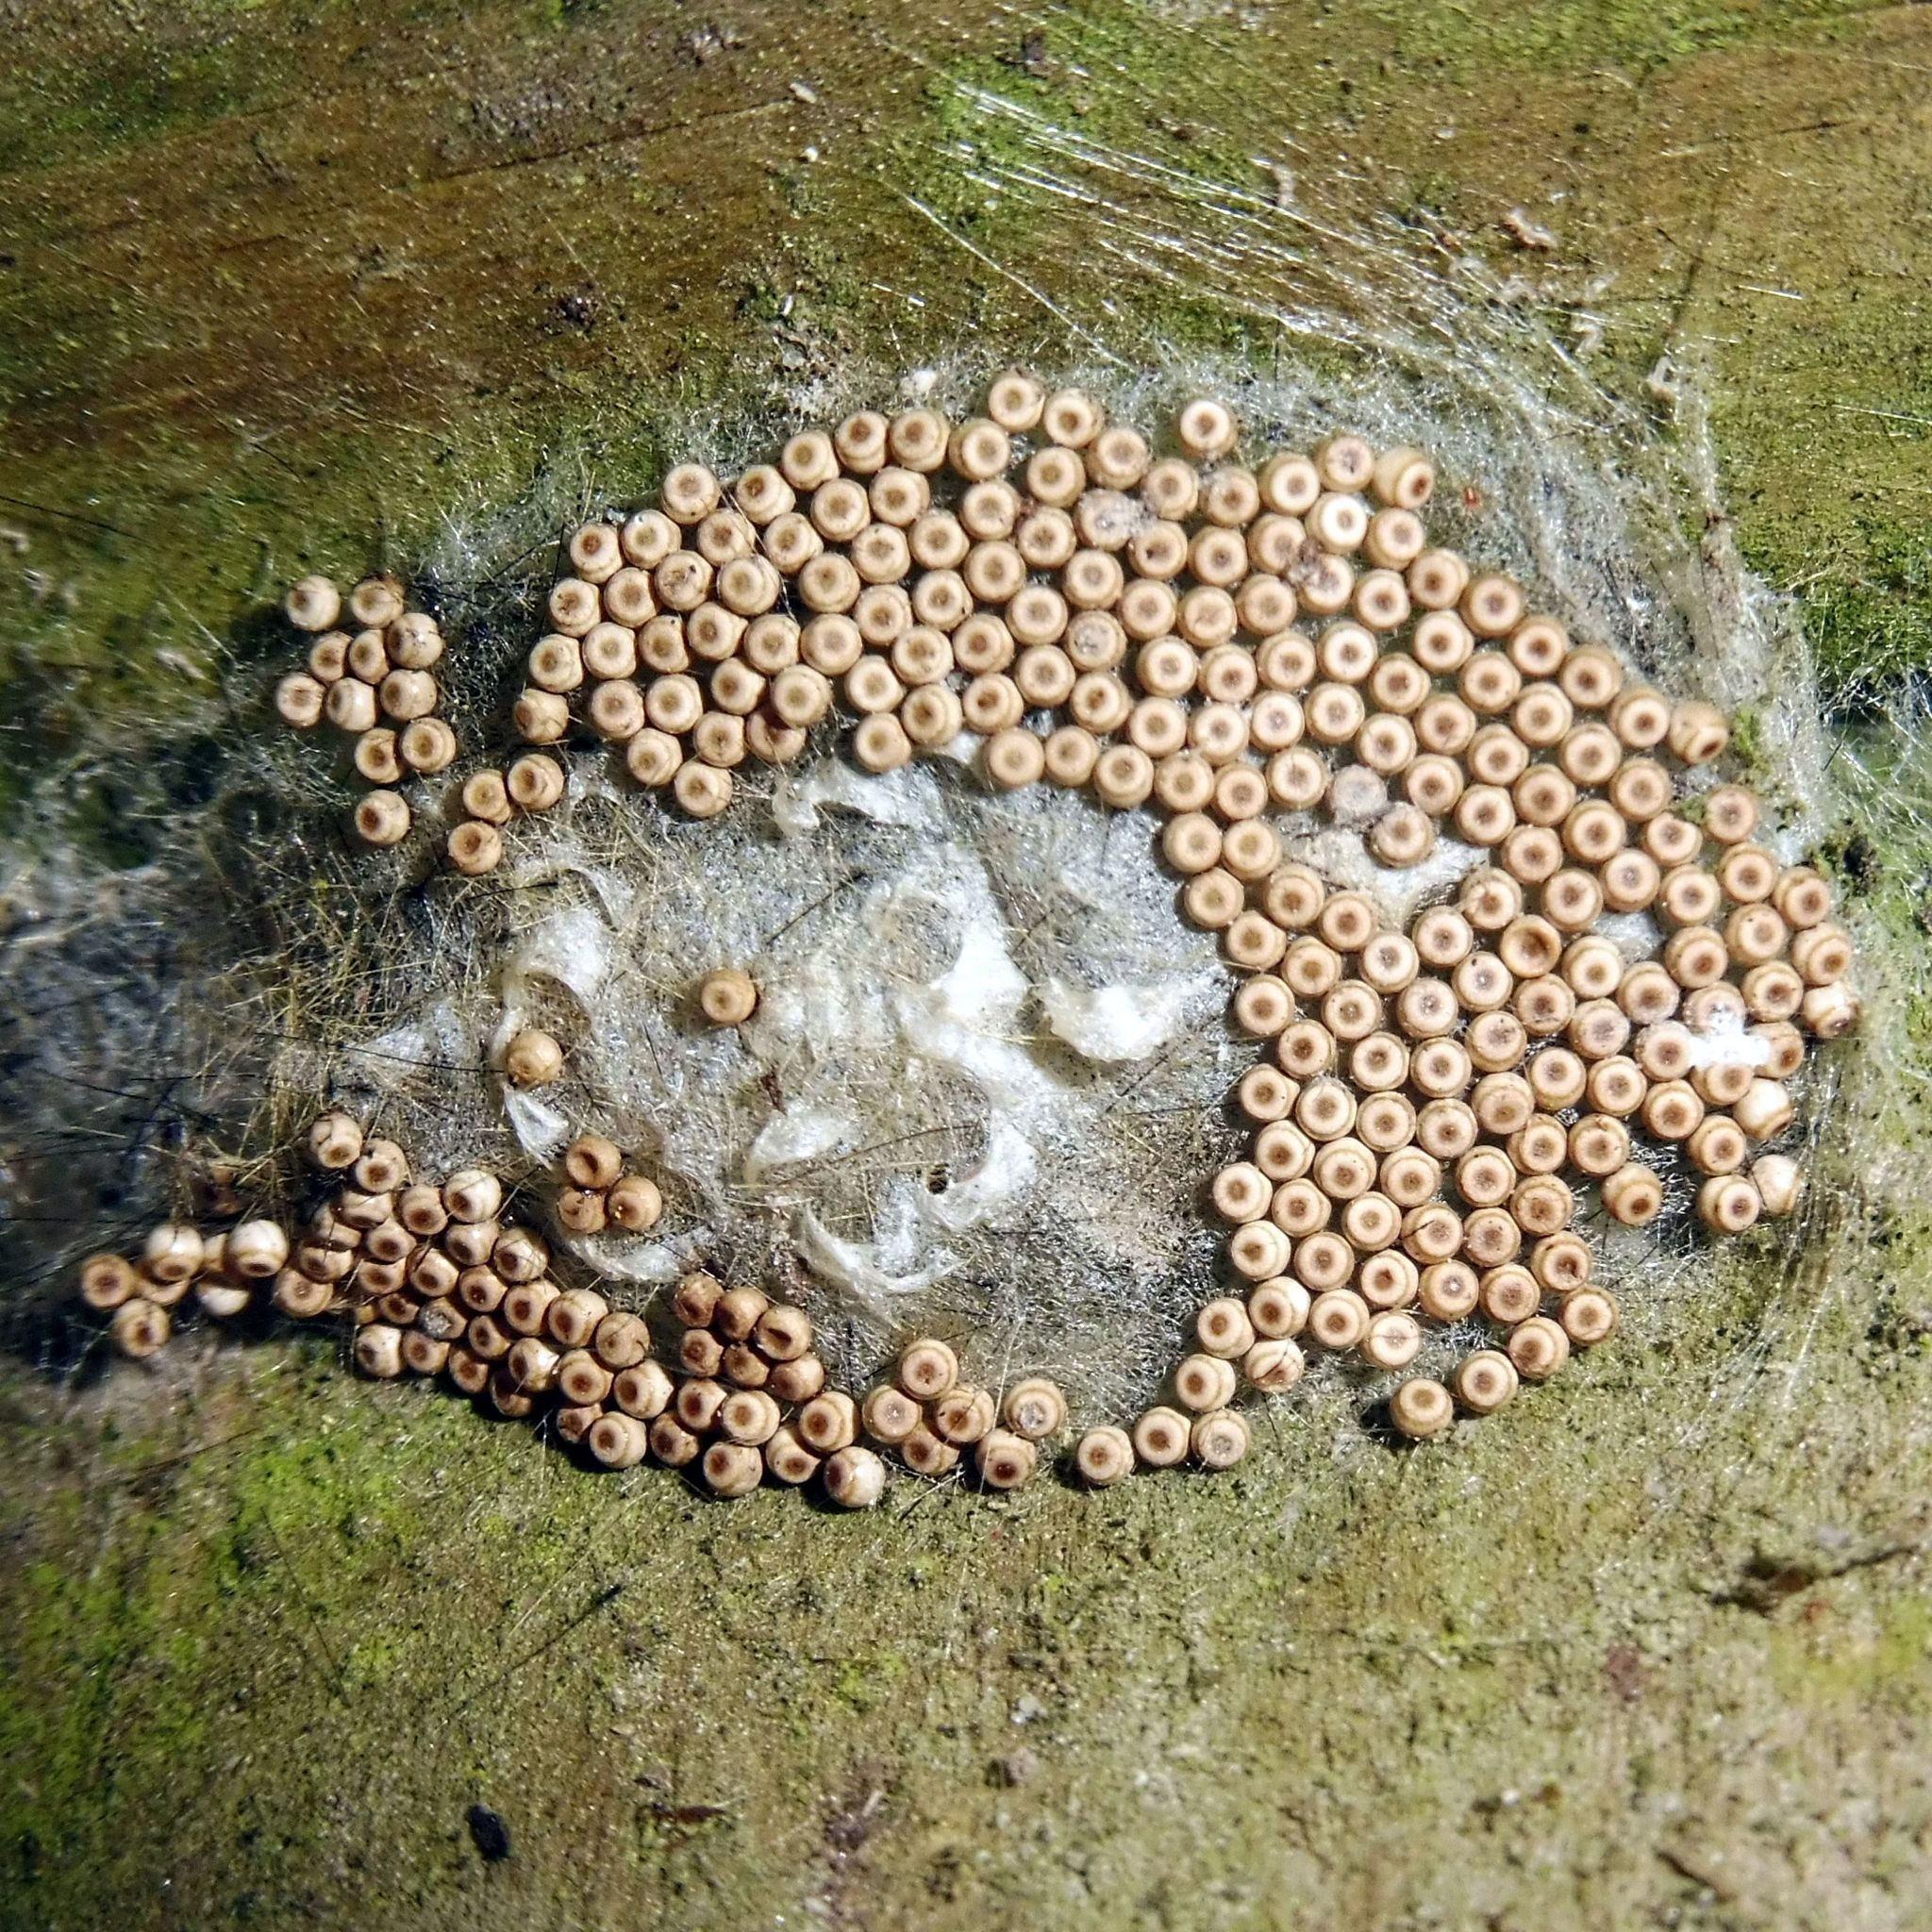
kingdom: Animalia
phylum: Arthropoda
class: Insecta
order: Lepidoptera
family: Erebidae
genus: Orgyia
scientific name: Orgyia antiqua
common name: Vapourer
